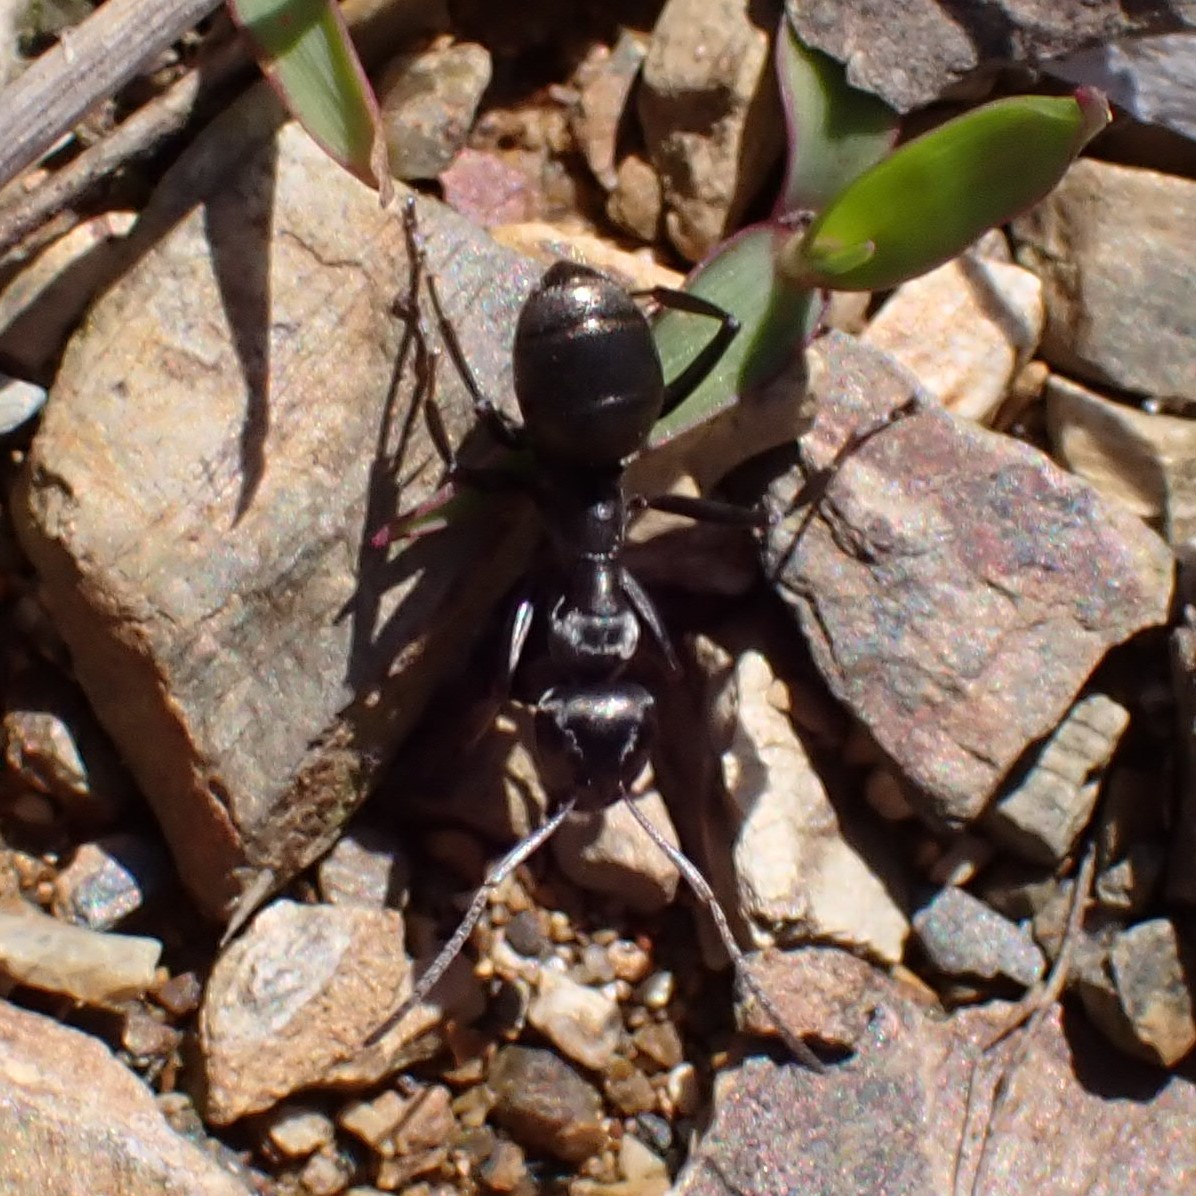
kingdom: Animalia
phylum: Arthropoda
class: Insecta
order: Hymenoptera
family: Formicidae
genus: Formica
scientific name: Formica
